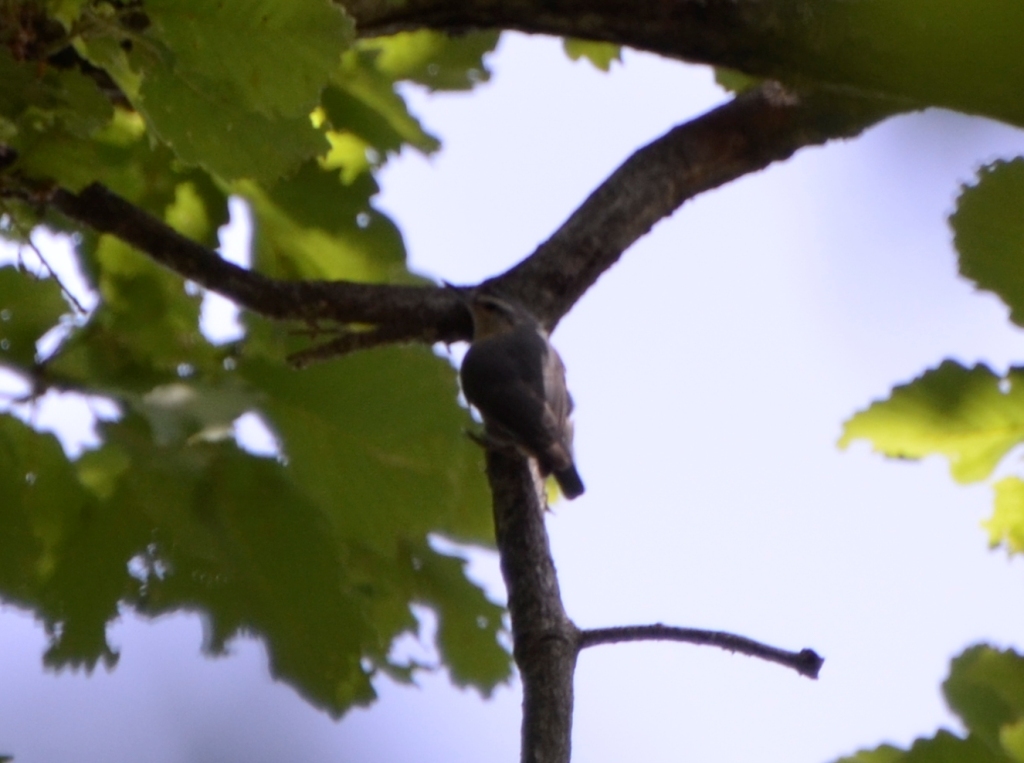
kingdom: Animalia
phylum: Chordata
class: Aves
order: Passeriformes
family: Sittidae
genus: Sitta
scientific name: Sitta ledanti
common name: Algerian nuthatch
